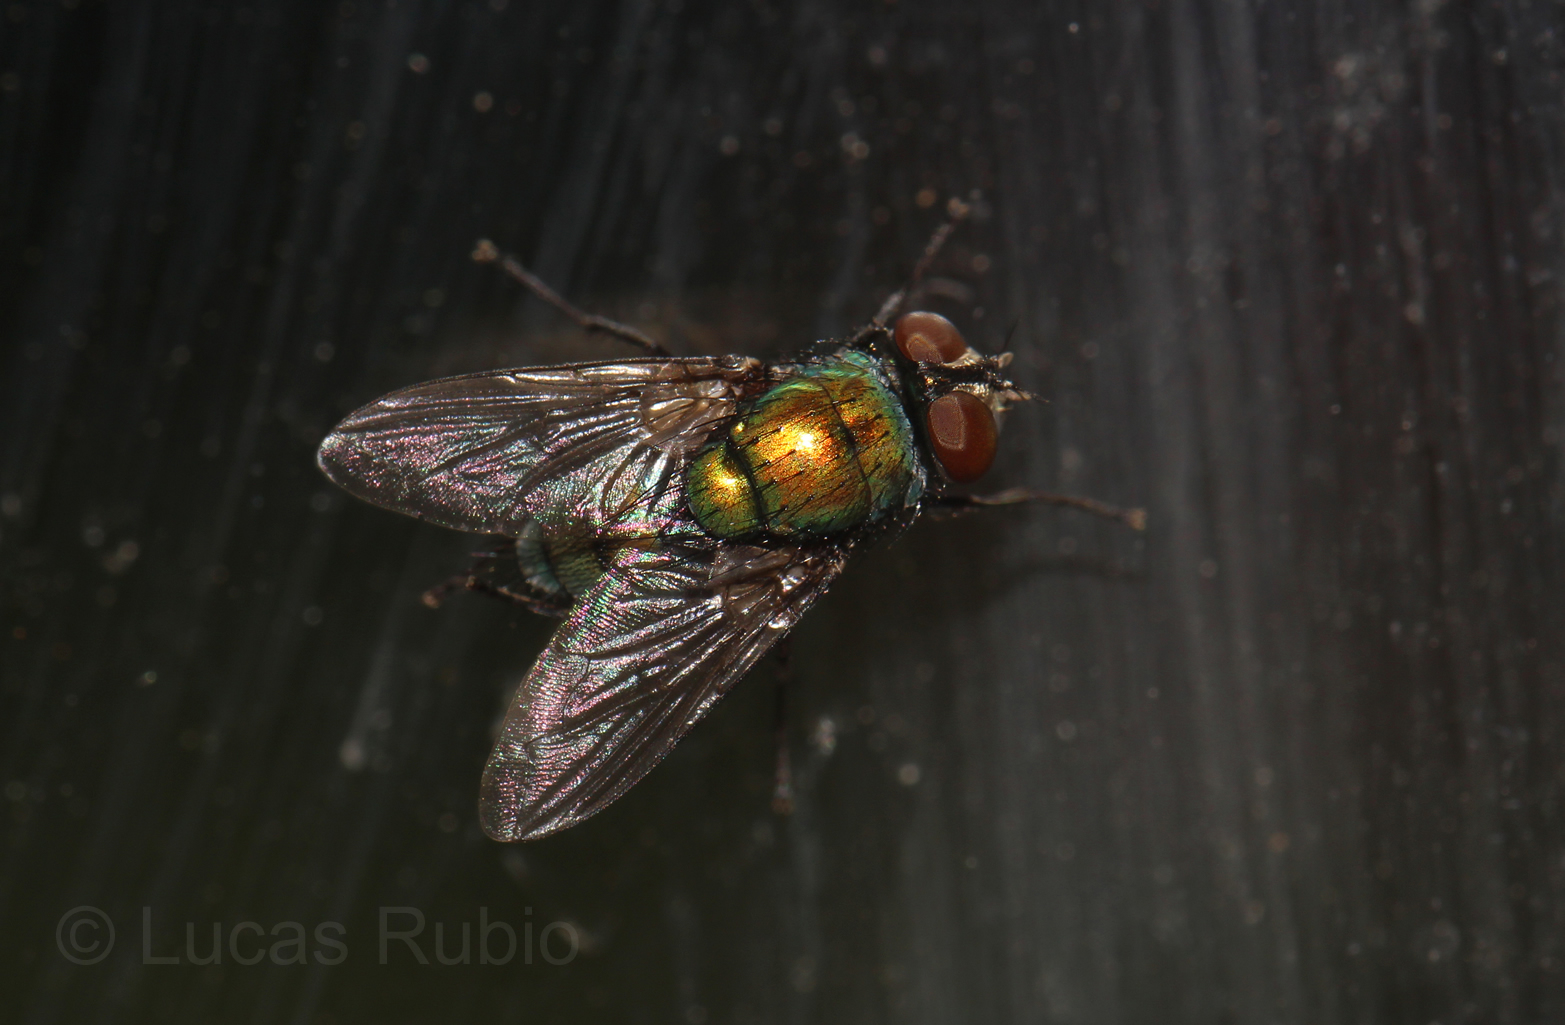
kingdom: Animalia
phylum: Arthropoda
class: Insecta
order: Diptera
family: Calliphoridae
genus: Lucilia
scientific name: Lucilia cuprina
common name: Sheep blow fly
